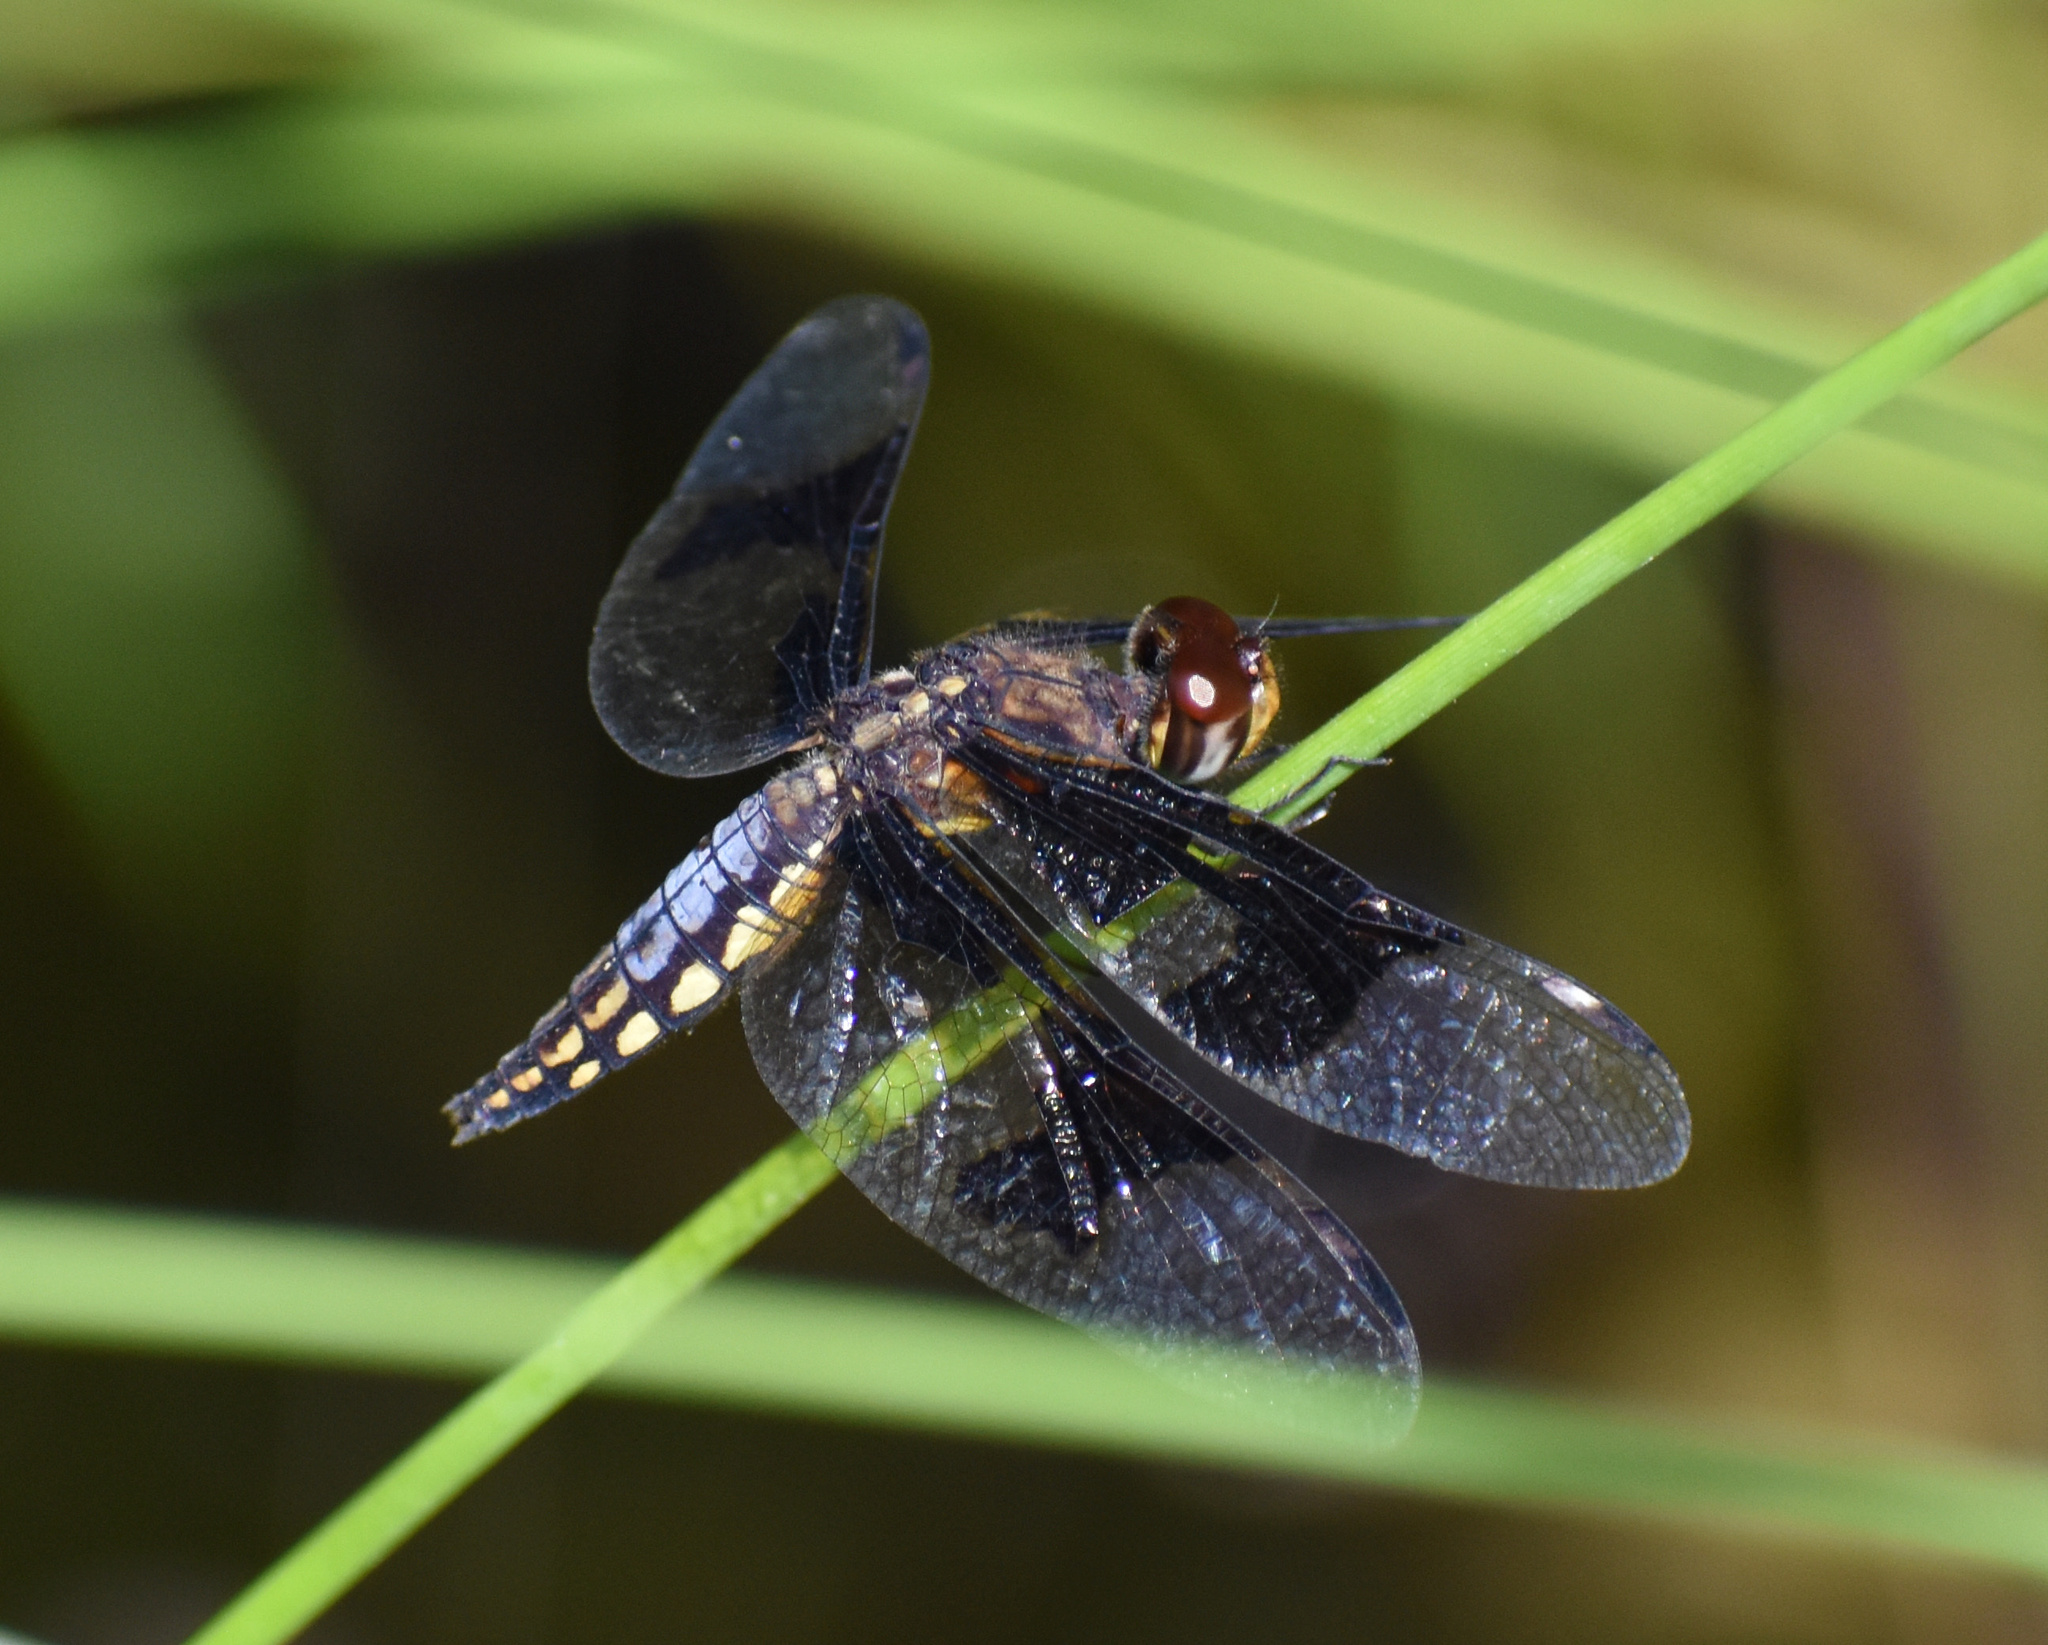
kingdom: Animalia
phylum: Arthropoda
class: Insecta
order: Odonata
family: Libellulidae
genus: Palpopleura
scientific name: Palpopleura lucia
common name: Lucia widow
